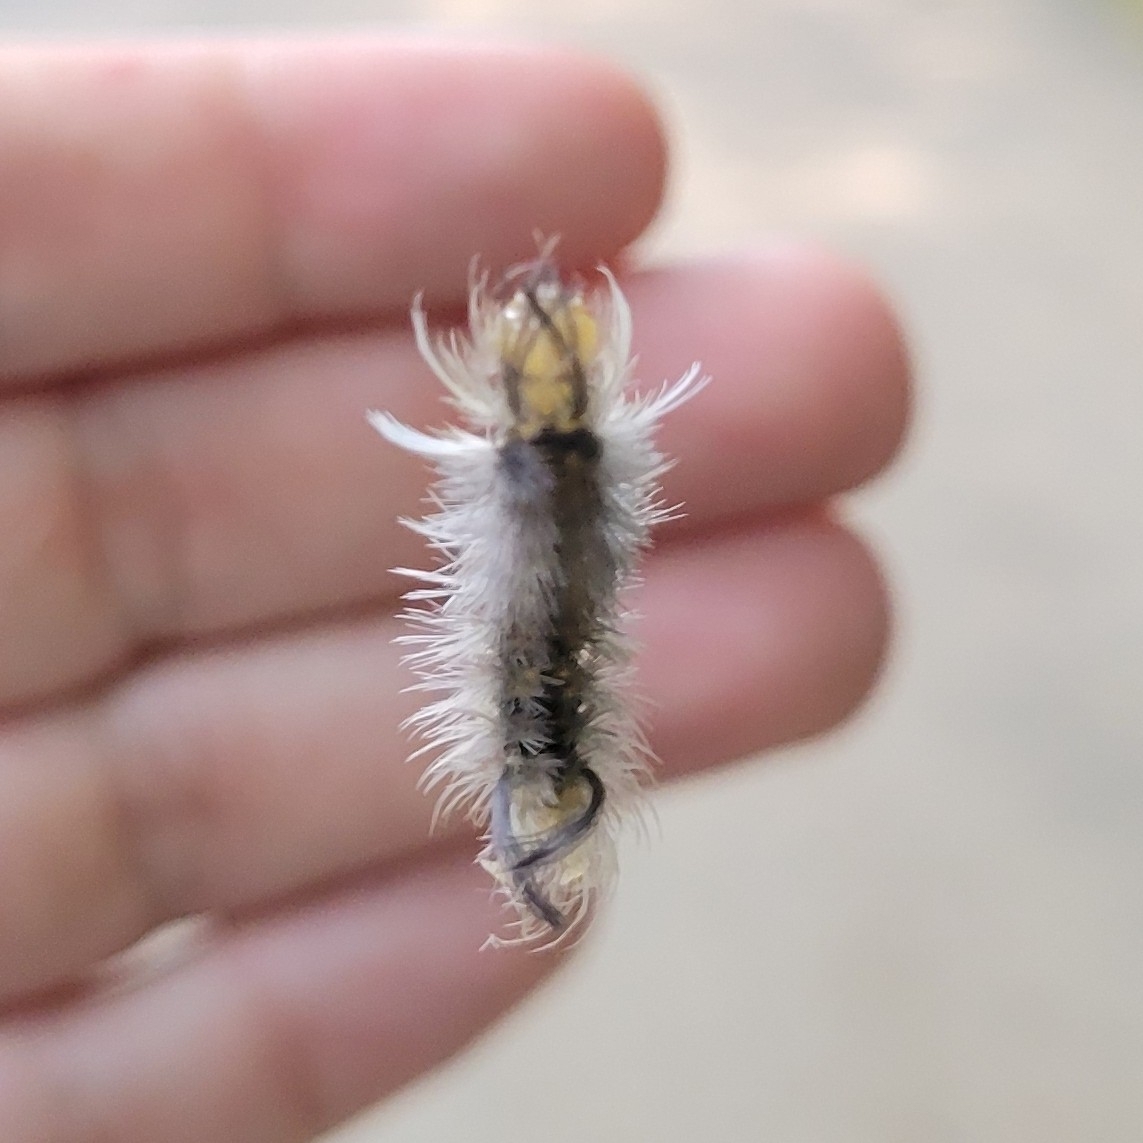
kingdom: Animalia
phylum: Arthropoda
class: Insecta
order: Lepidoptera
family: Erebidae
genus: Halysidota
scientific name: Halysidota tessellaris
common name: Banded tussock moth
